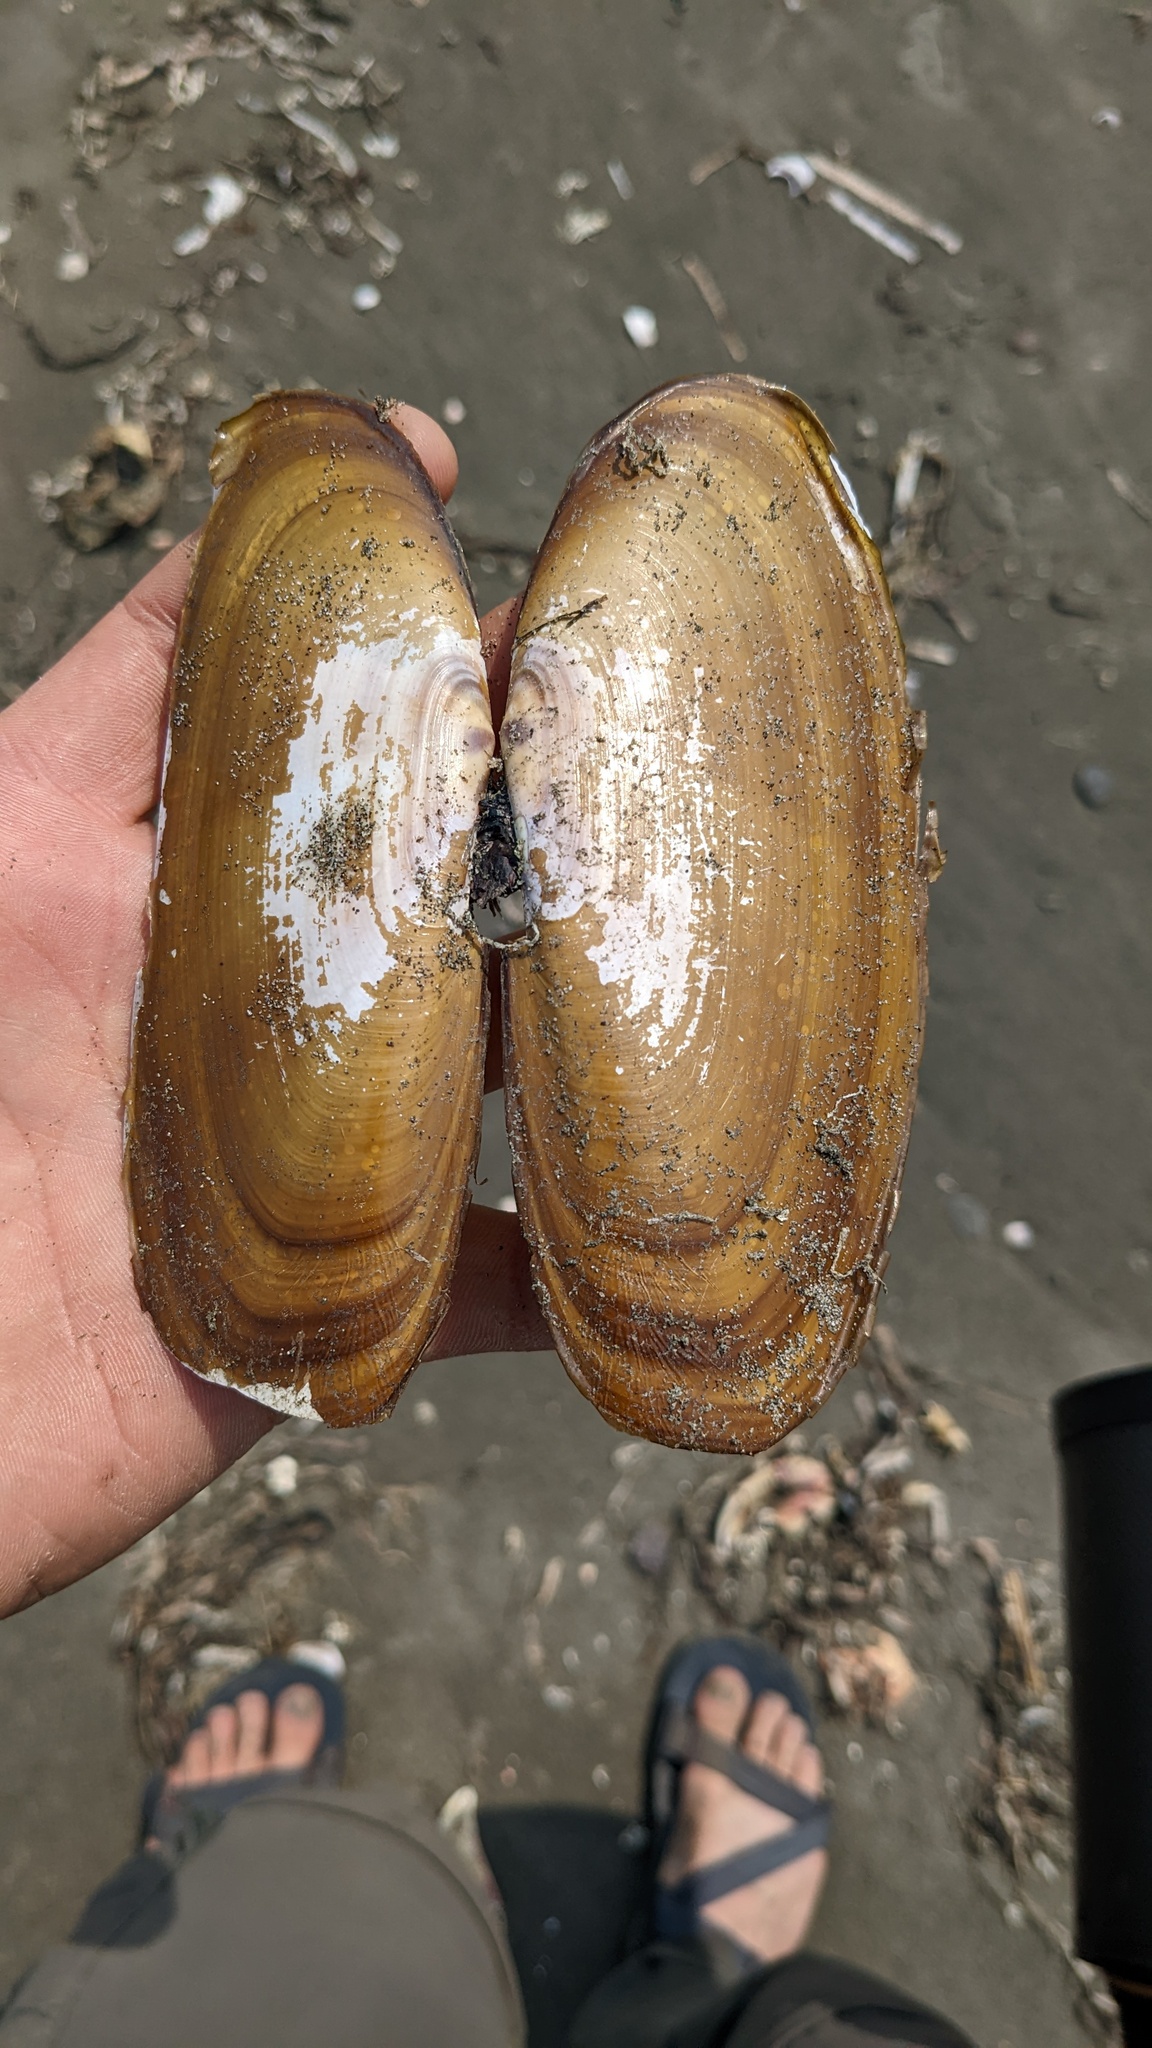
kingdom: Animalia
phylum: Mollusca
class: Bivalvia
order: Adapedonta
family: Pharidae
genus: Siliqua
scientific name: Siliqua patula
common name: Pacific razor clam
